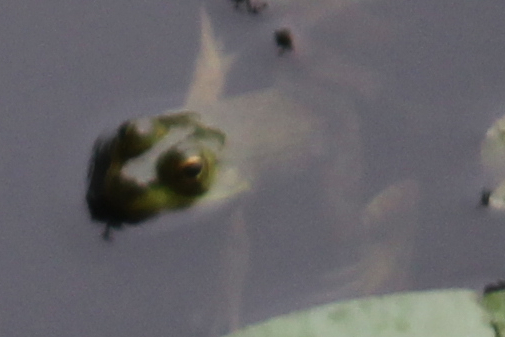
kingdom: Animalia
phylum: Chordata
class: Amphibia
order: Anura
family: Ranidae
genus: Lithobates
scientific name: Lithobates clamitans
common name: Green frog
